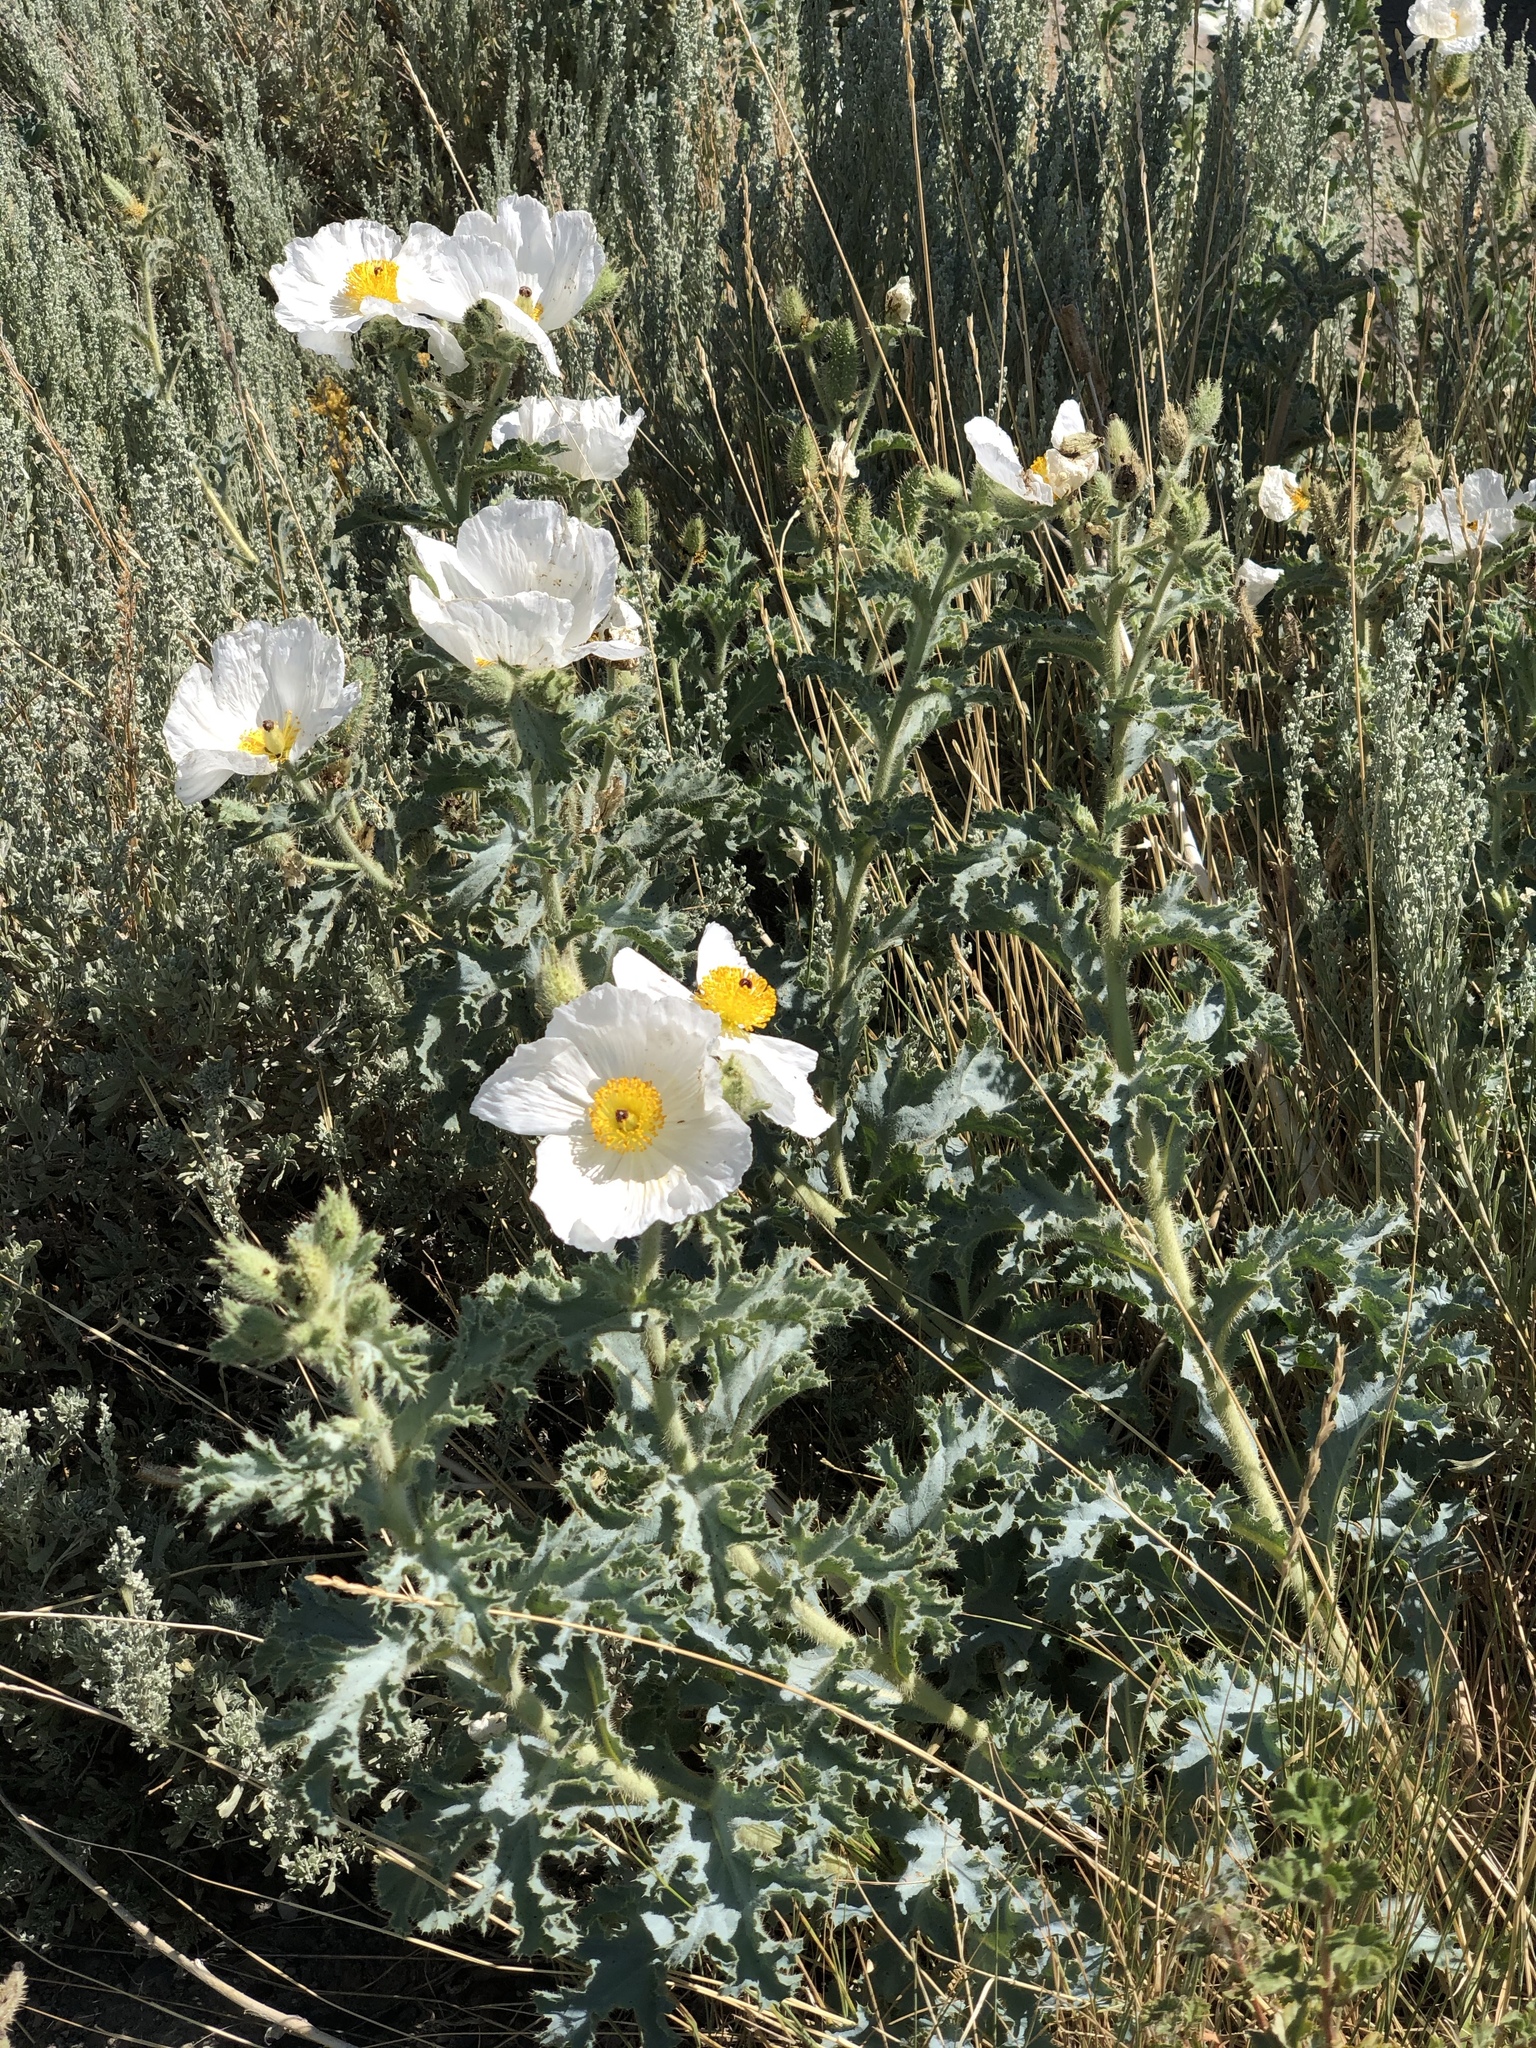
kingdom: Plantae
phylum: Tracheophyta
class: Magnoliopsida
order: Ranunculales
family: Papaveraceae
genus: Argemone
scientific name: Argemone munita
